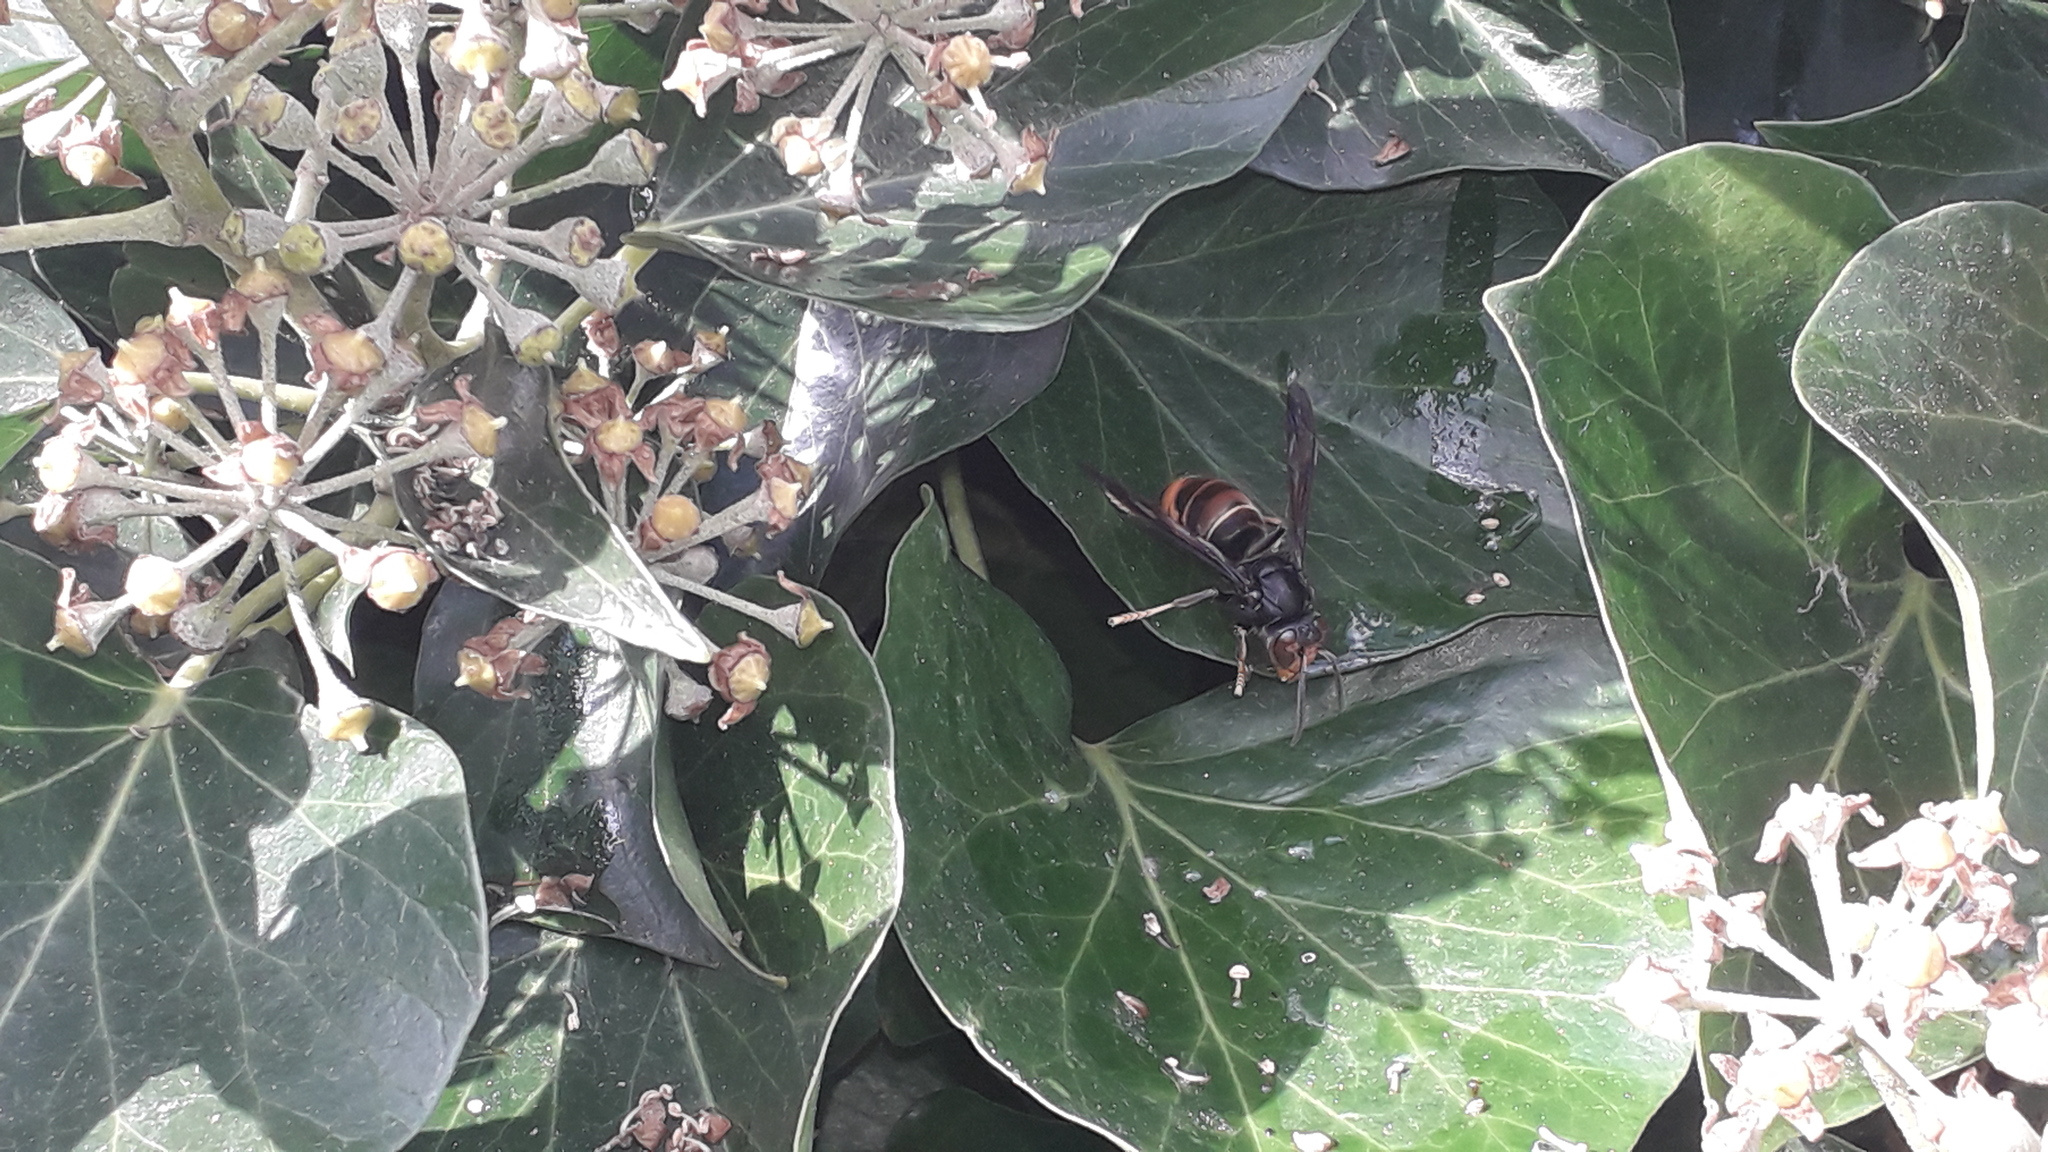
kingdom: Animalia
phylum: Arthropoda
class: Insecta
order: Hymenoptera
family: Vespidae
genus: Vespa
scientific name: Vespa velutina
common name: Asian hornet
